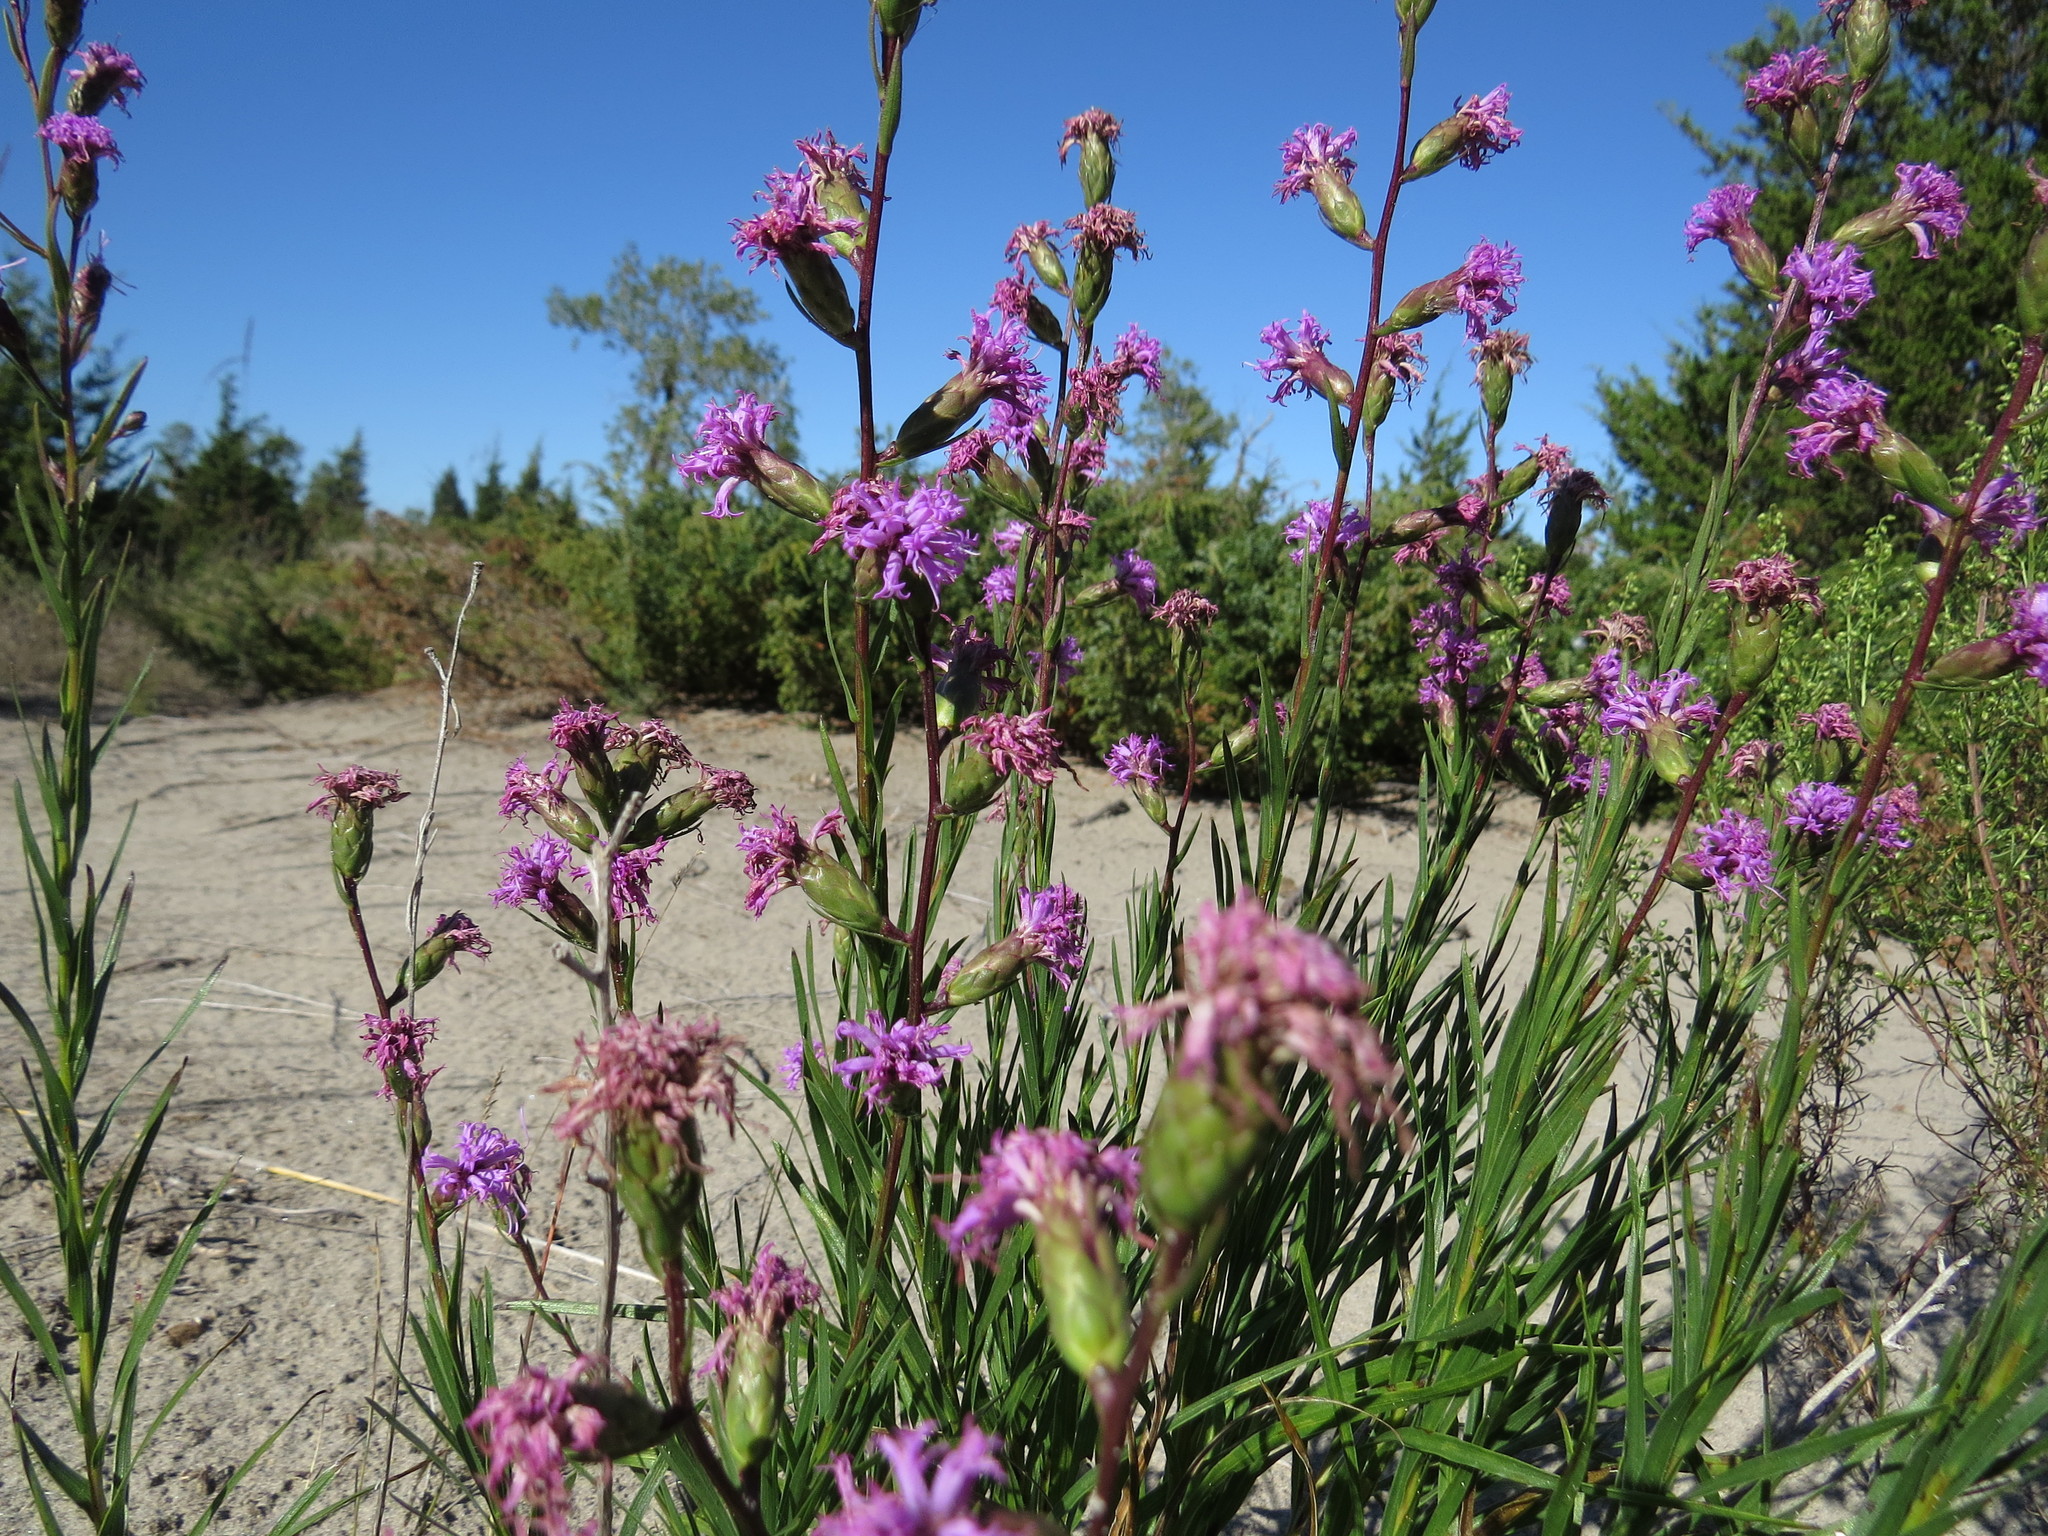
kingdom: Plantae
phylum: Tracheophyta
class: Magnoliopsida
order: Asterales
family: Asteraceae
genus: Liatris
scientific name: Liatris cylindracea
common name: Few-head blazingstar
